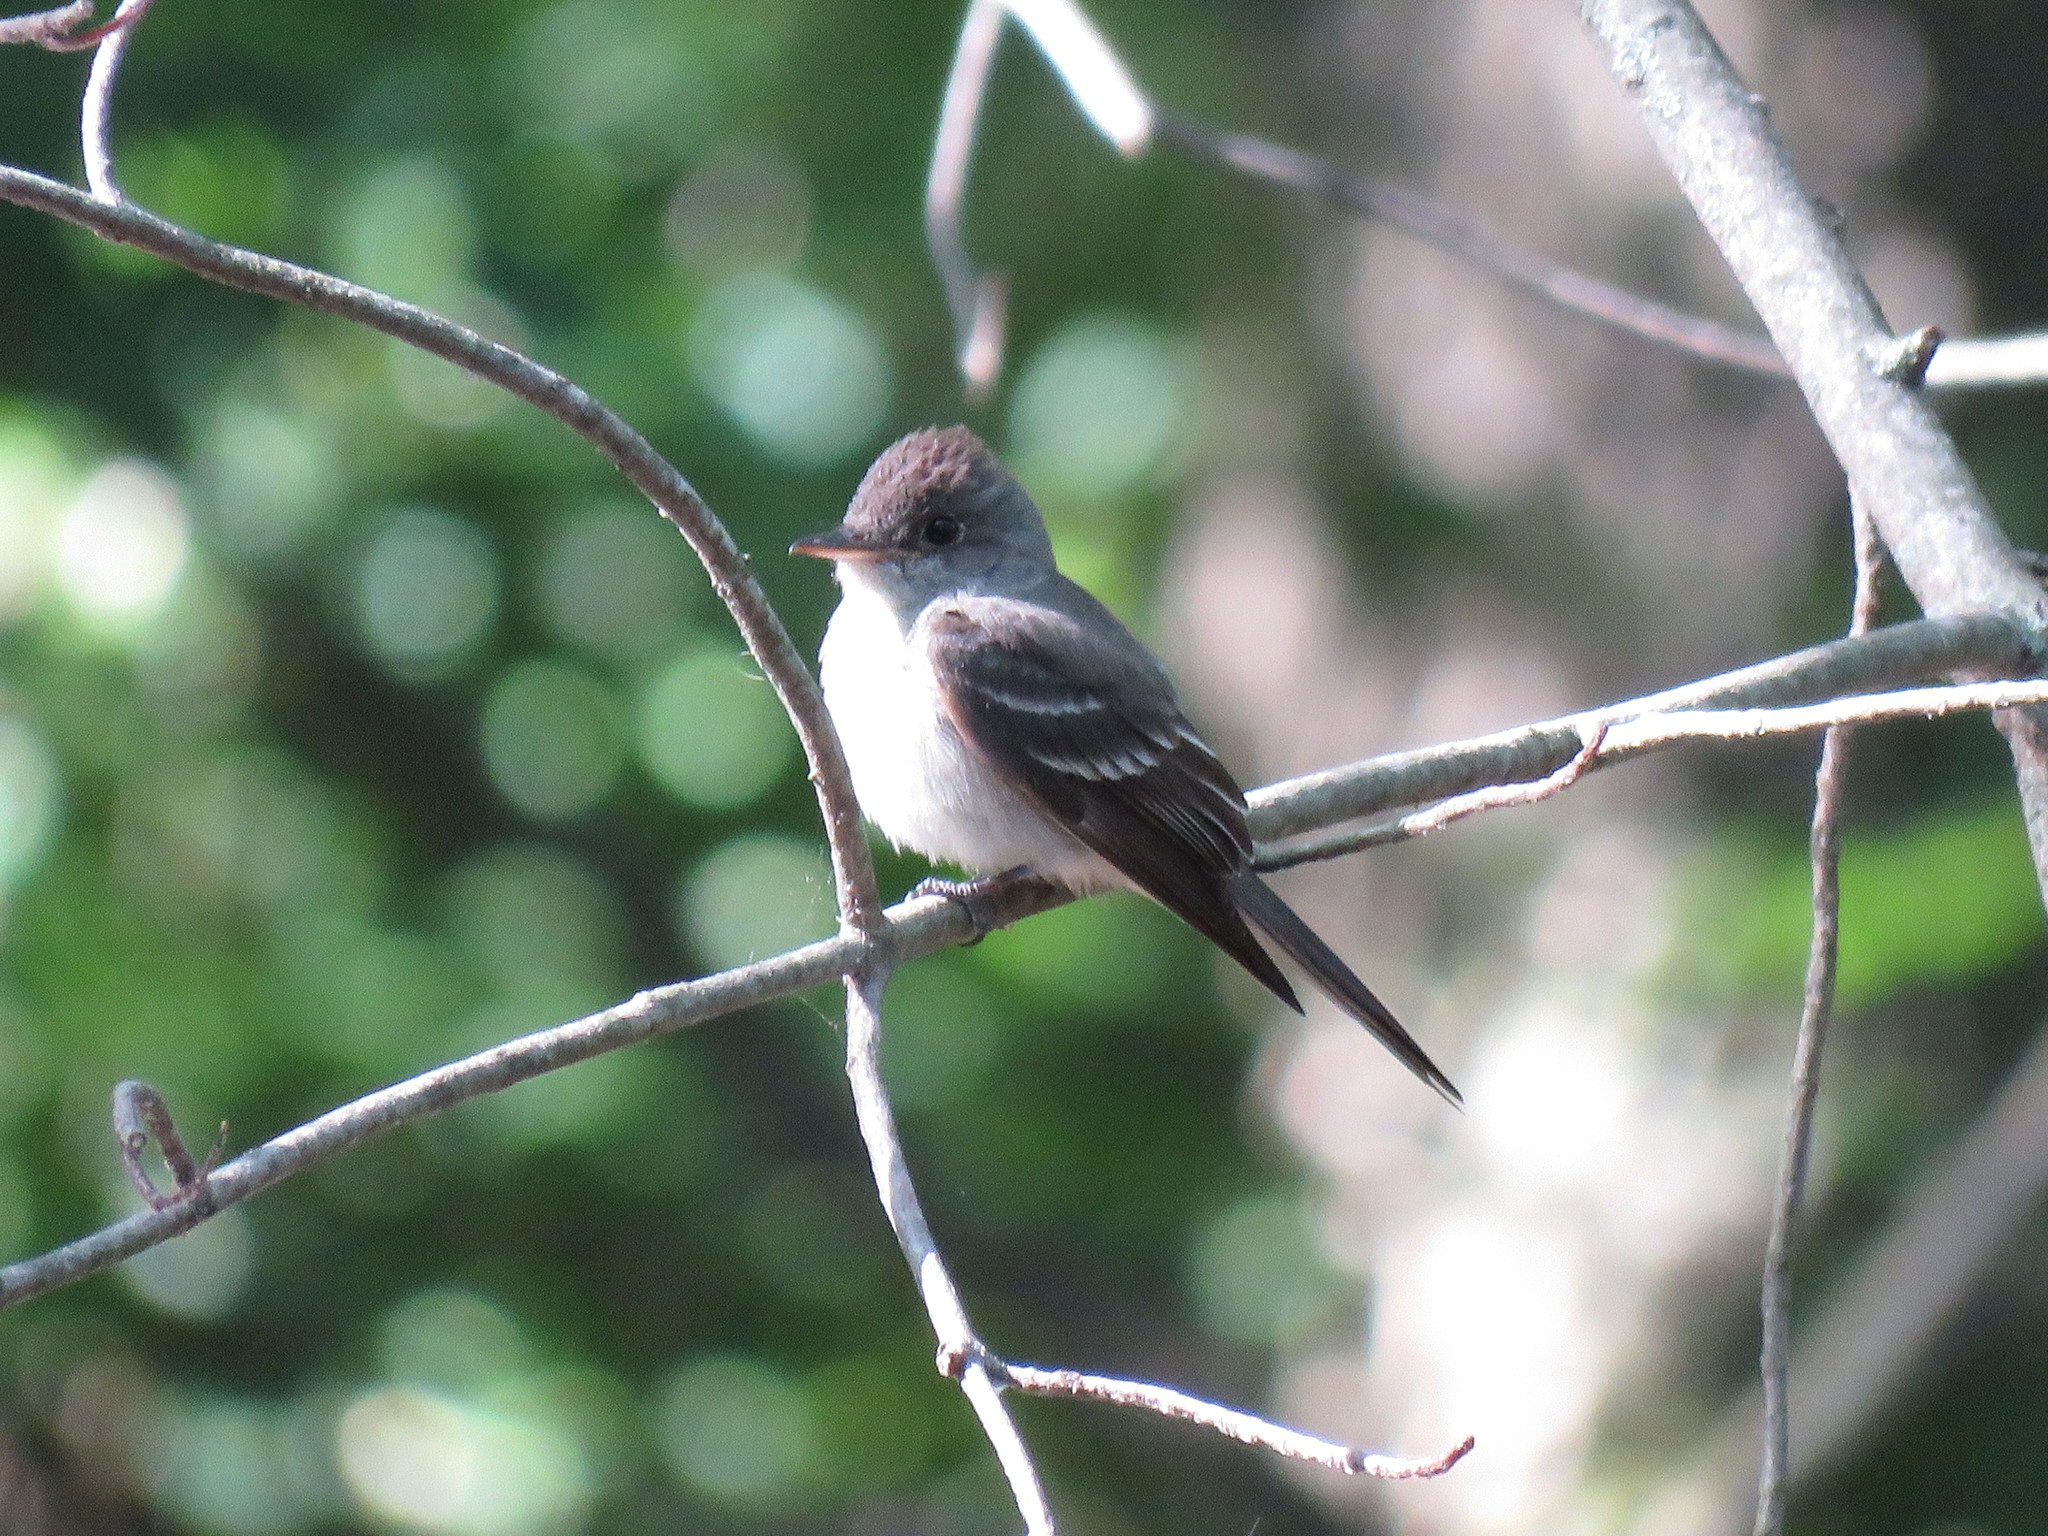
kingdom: Animalia
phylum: Chordata
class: Aves
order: Passeriformes
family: Tyrannidae
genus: Contopus
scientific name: Contopus virens
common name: Eastern wood-pewee
